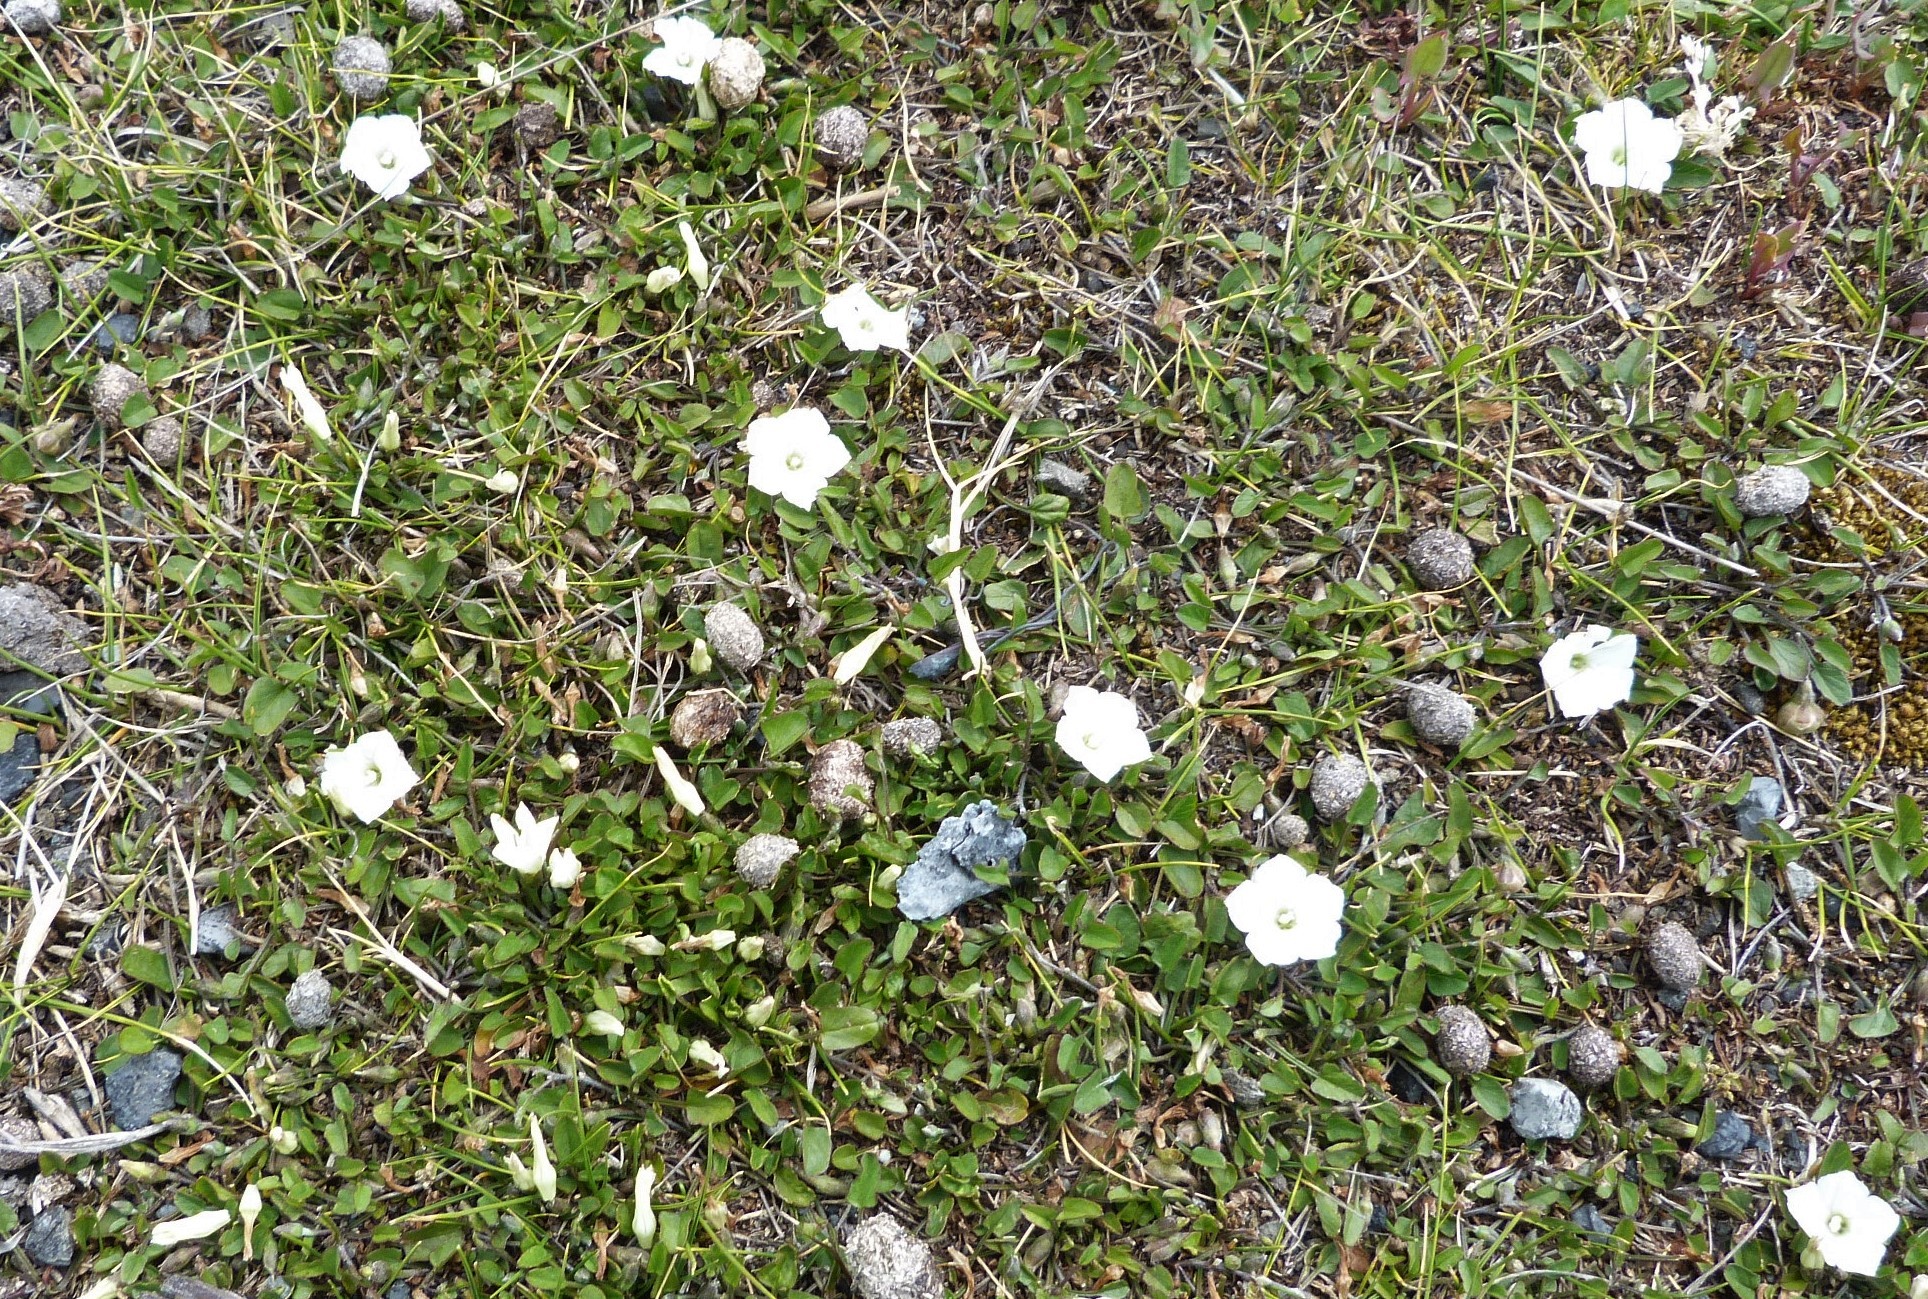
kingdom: Plantae
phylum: Tracheophyta
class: Magnoliopsida
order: Solanales
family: Convolvulaceae
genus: Convolvulus
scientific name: Convolvulus waitaha
